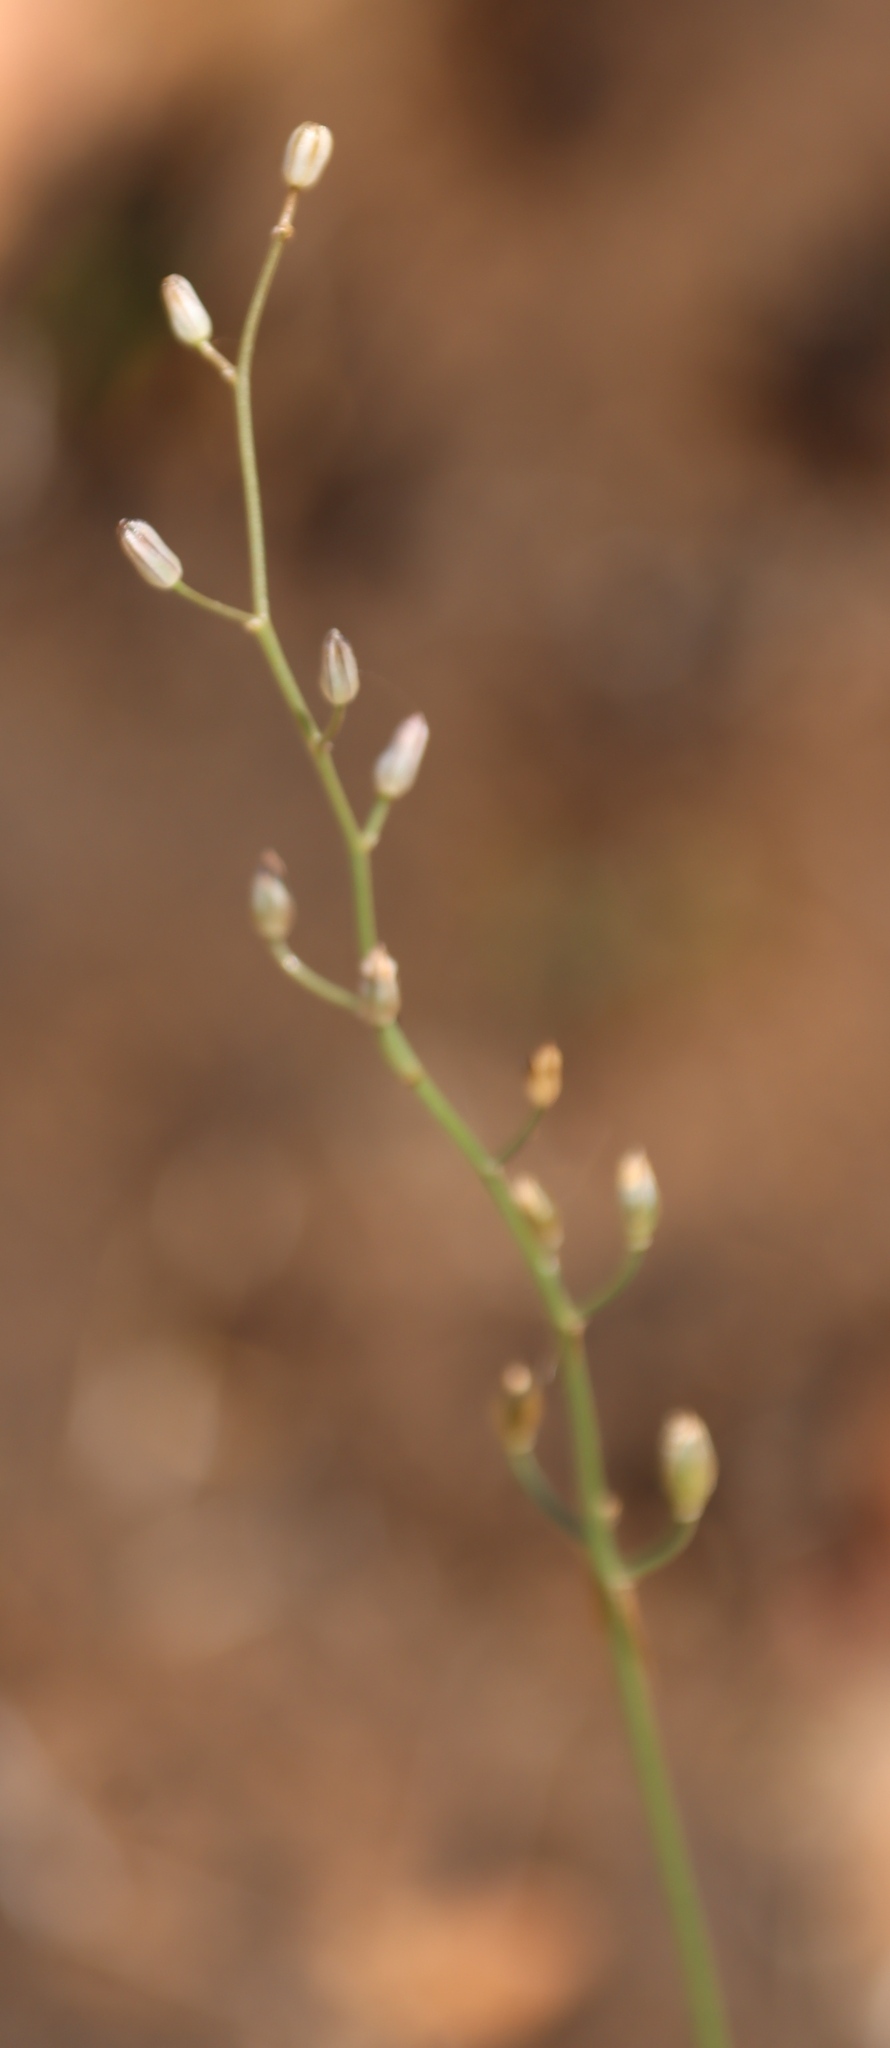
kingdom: Plantae
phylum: Tracheophyta
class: Liliopsida
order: Asparagales
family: Asparagaceae
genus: Drimia
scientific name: Drimia calcarata
